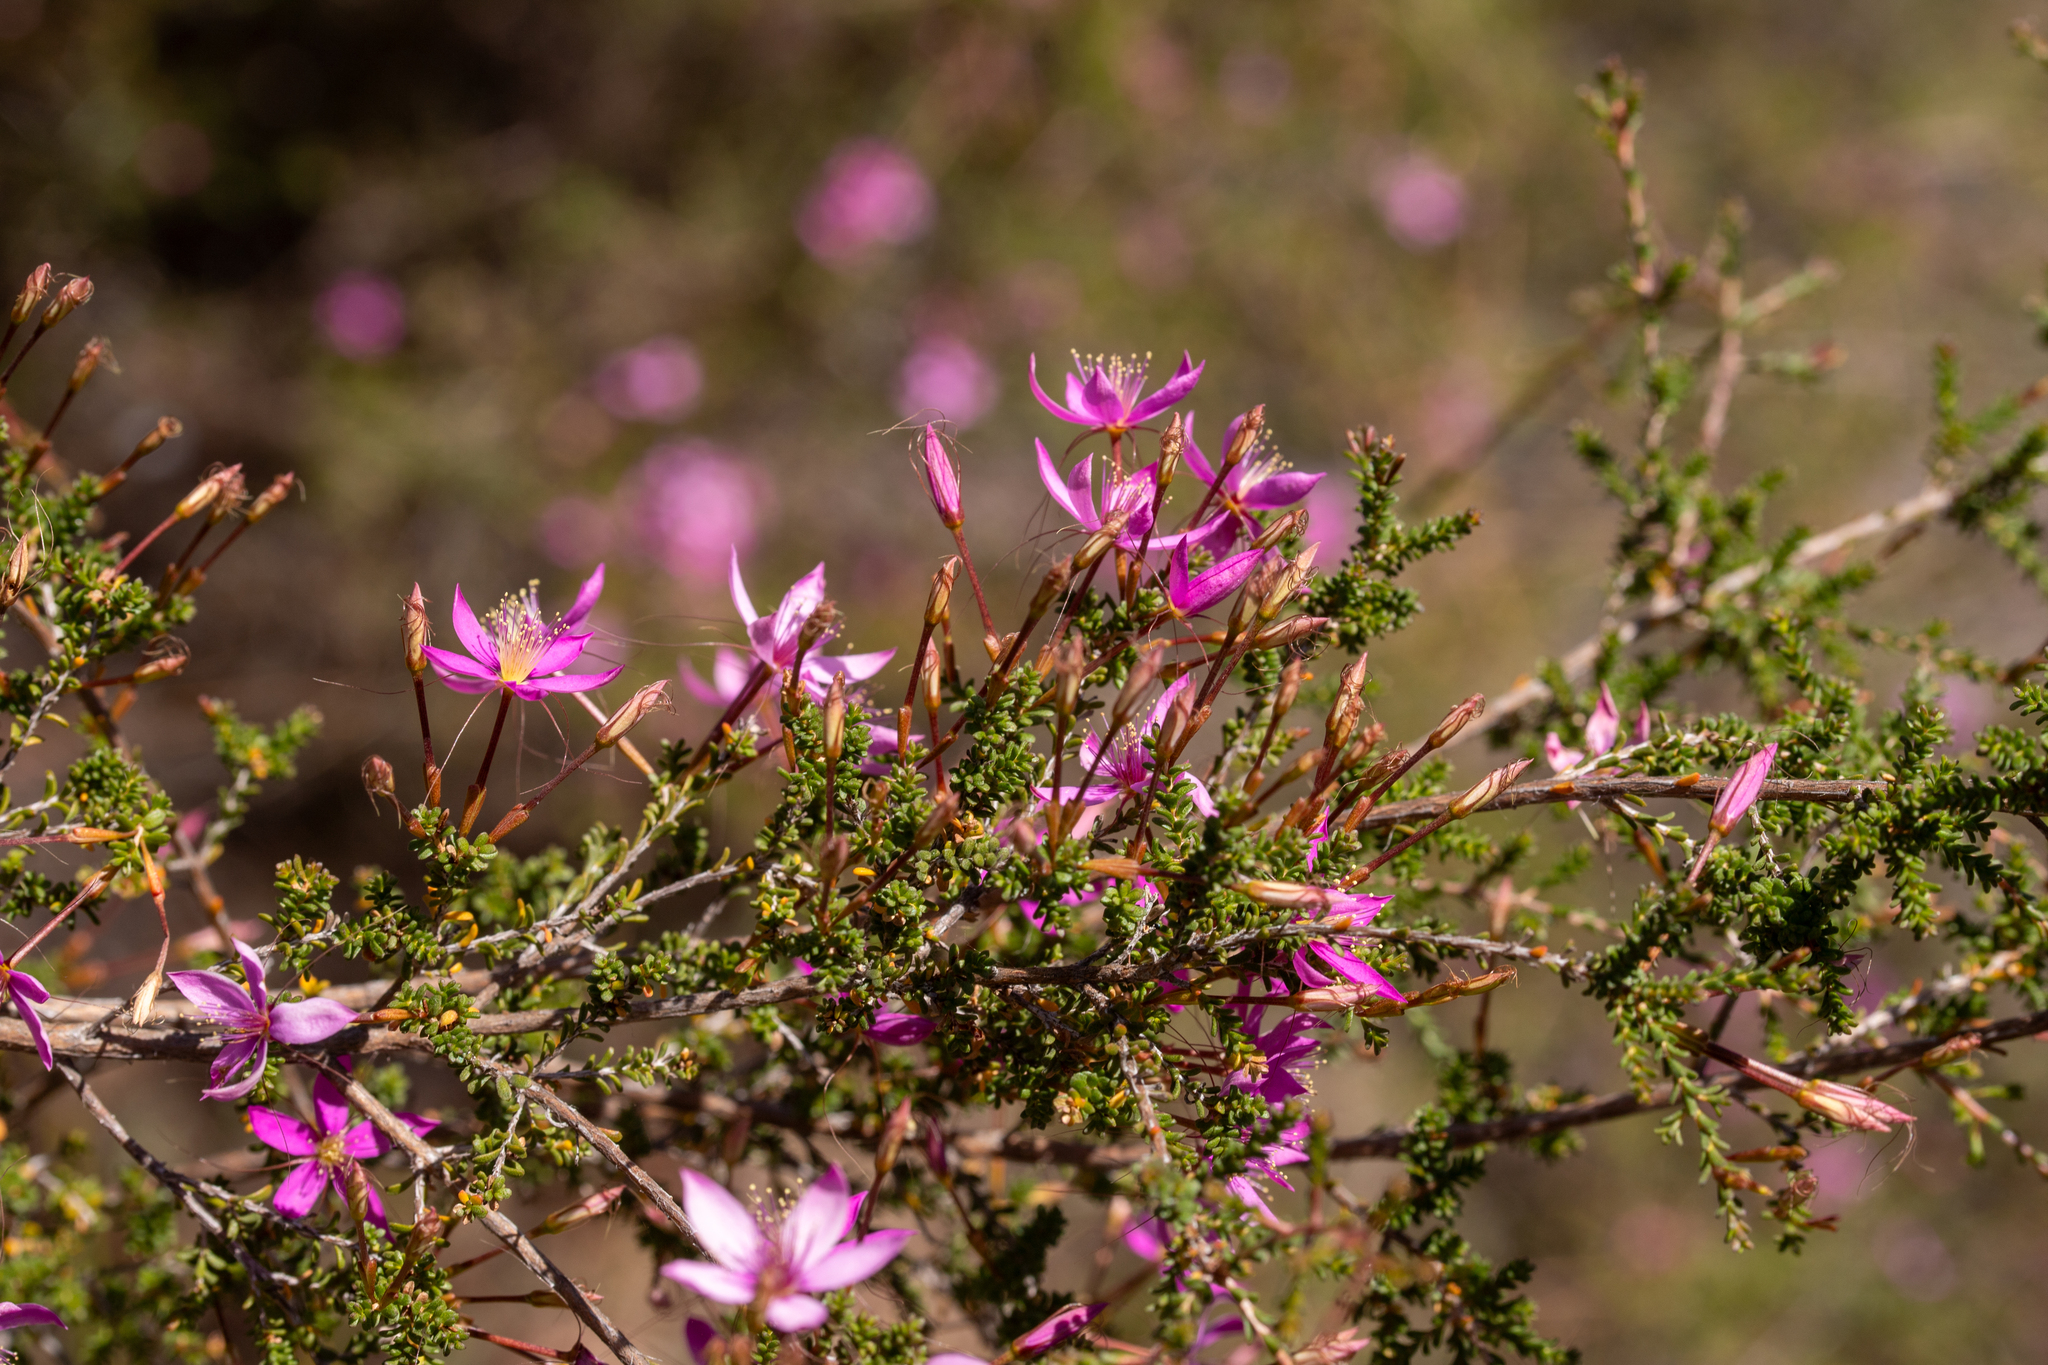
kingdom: Plantae
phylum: Tracheophyta
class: Magnoliopsida
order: Myrtales
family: Myrtaceae
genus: Calytrix
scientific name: Calytrix fraseri
